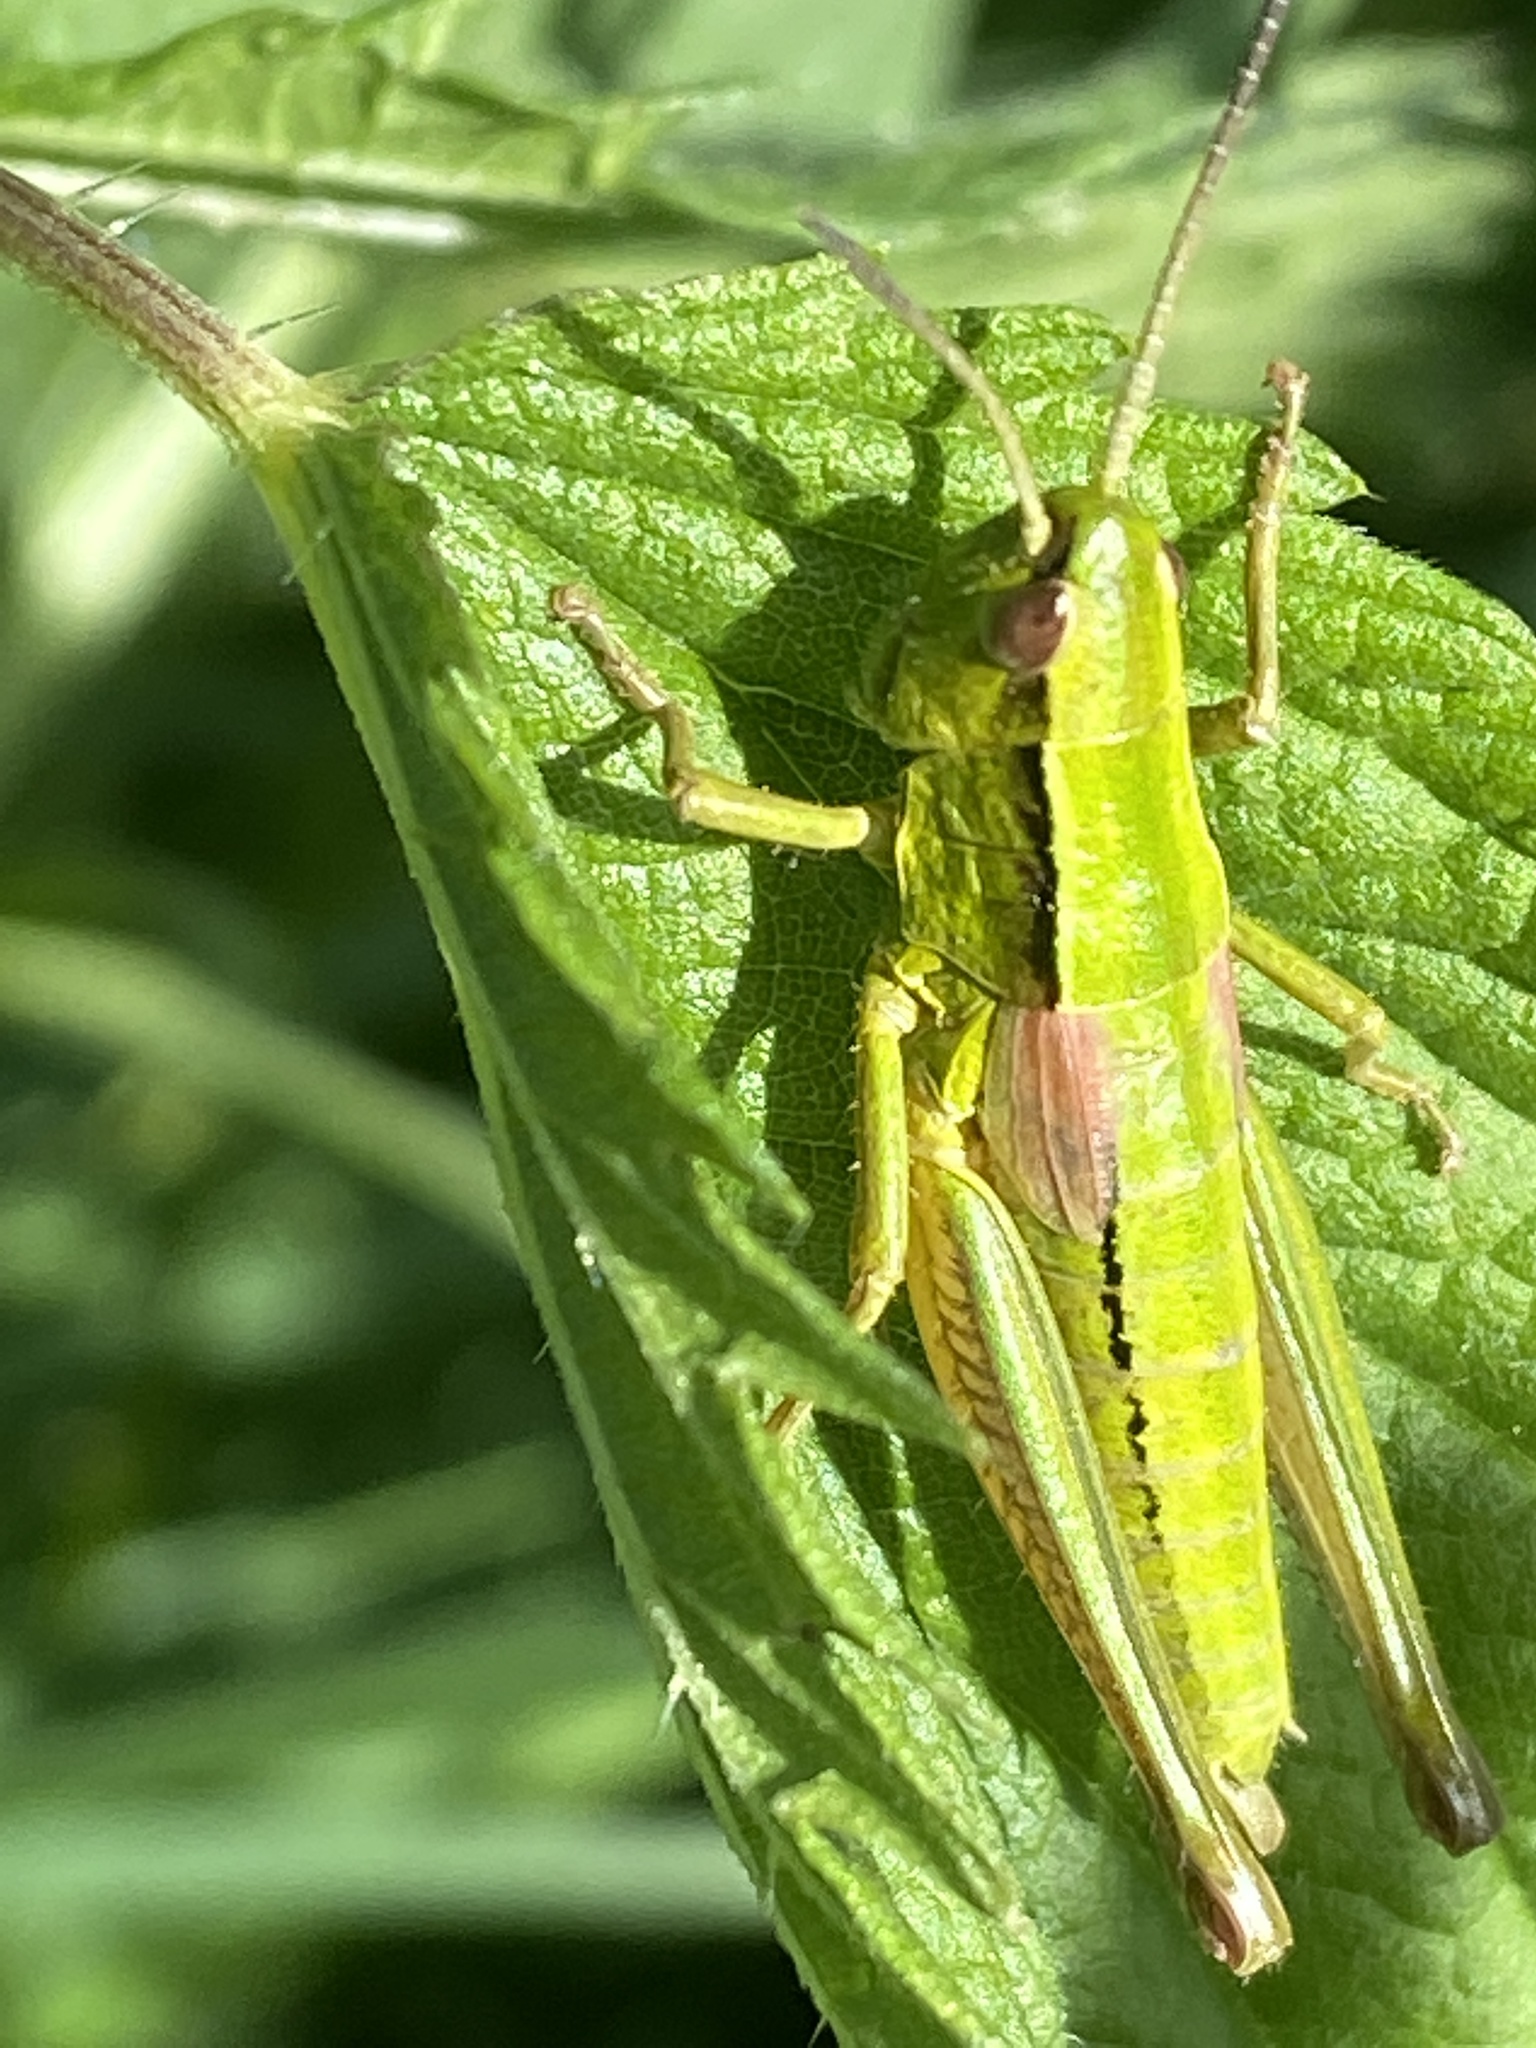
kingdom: Animalia
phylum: Arthropoda
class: Insecta
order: Orthoptera
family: Acrididae
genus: Euthystira
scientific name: Euthystira brachyptera
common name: Small gold grasshopper
